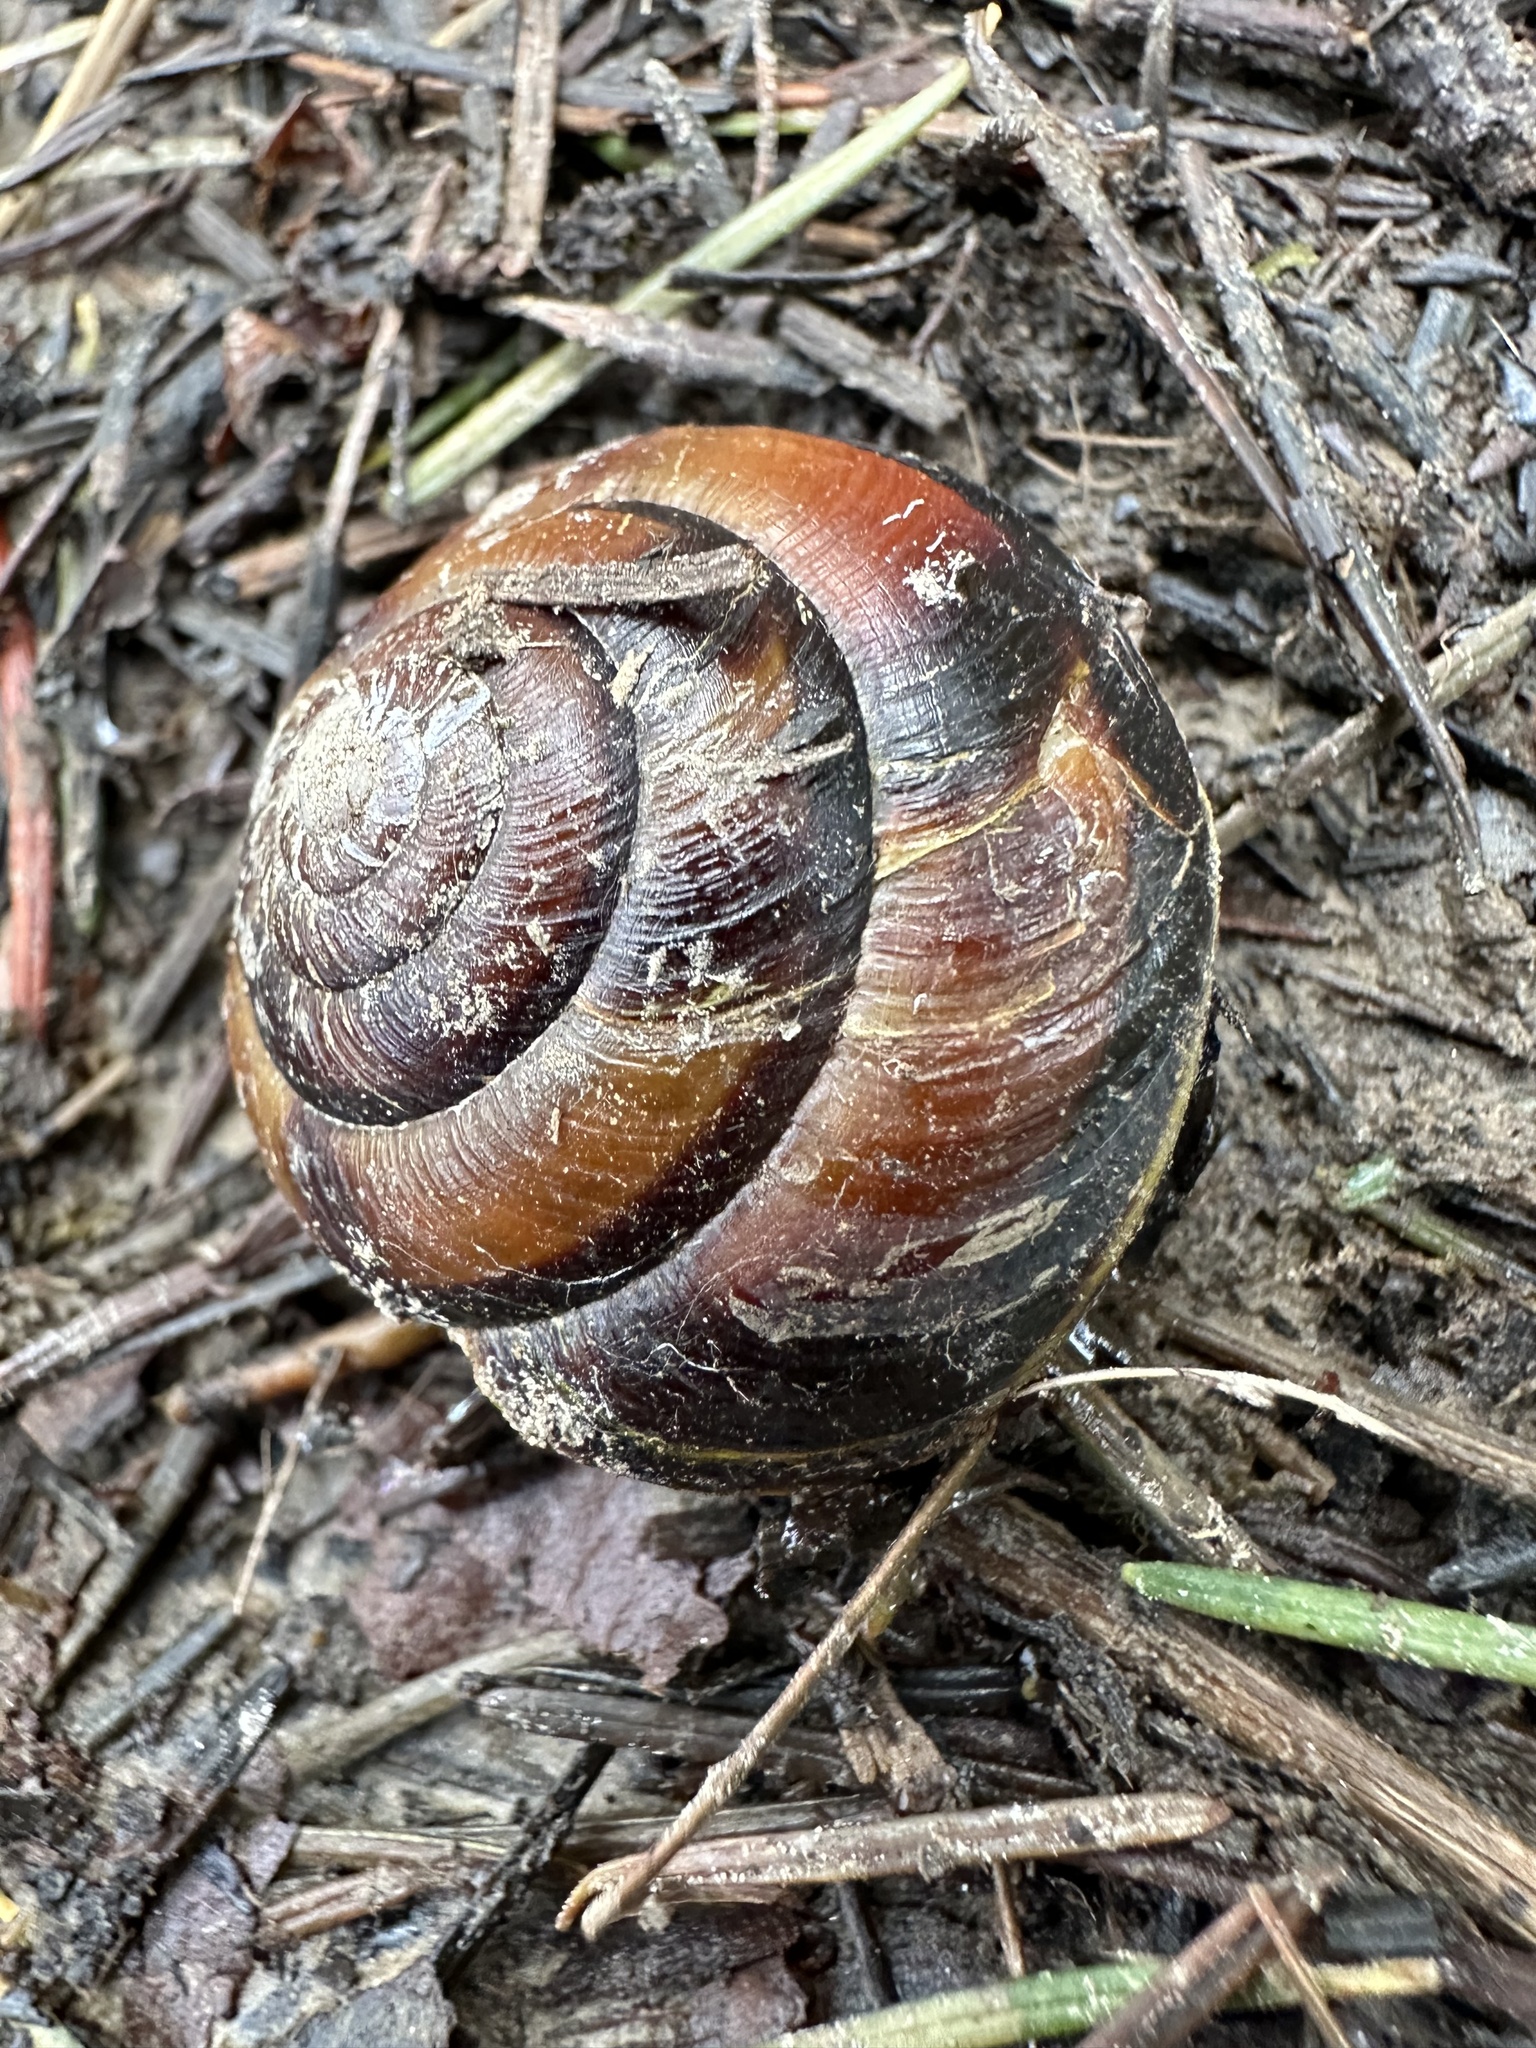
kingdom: Animalia
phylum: Mollusca
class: Gastropoda
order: Stylommatophora
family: Xanthonychidae
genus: Monadenia
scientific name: Monadenia fidelis
